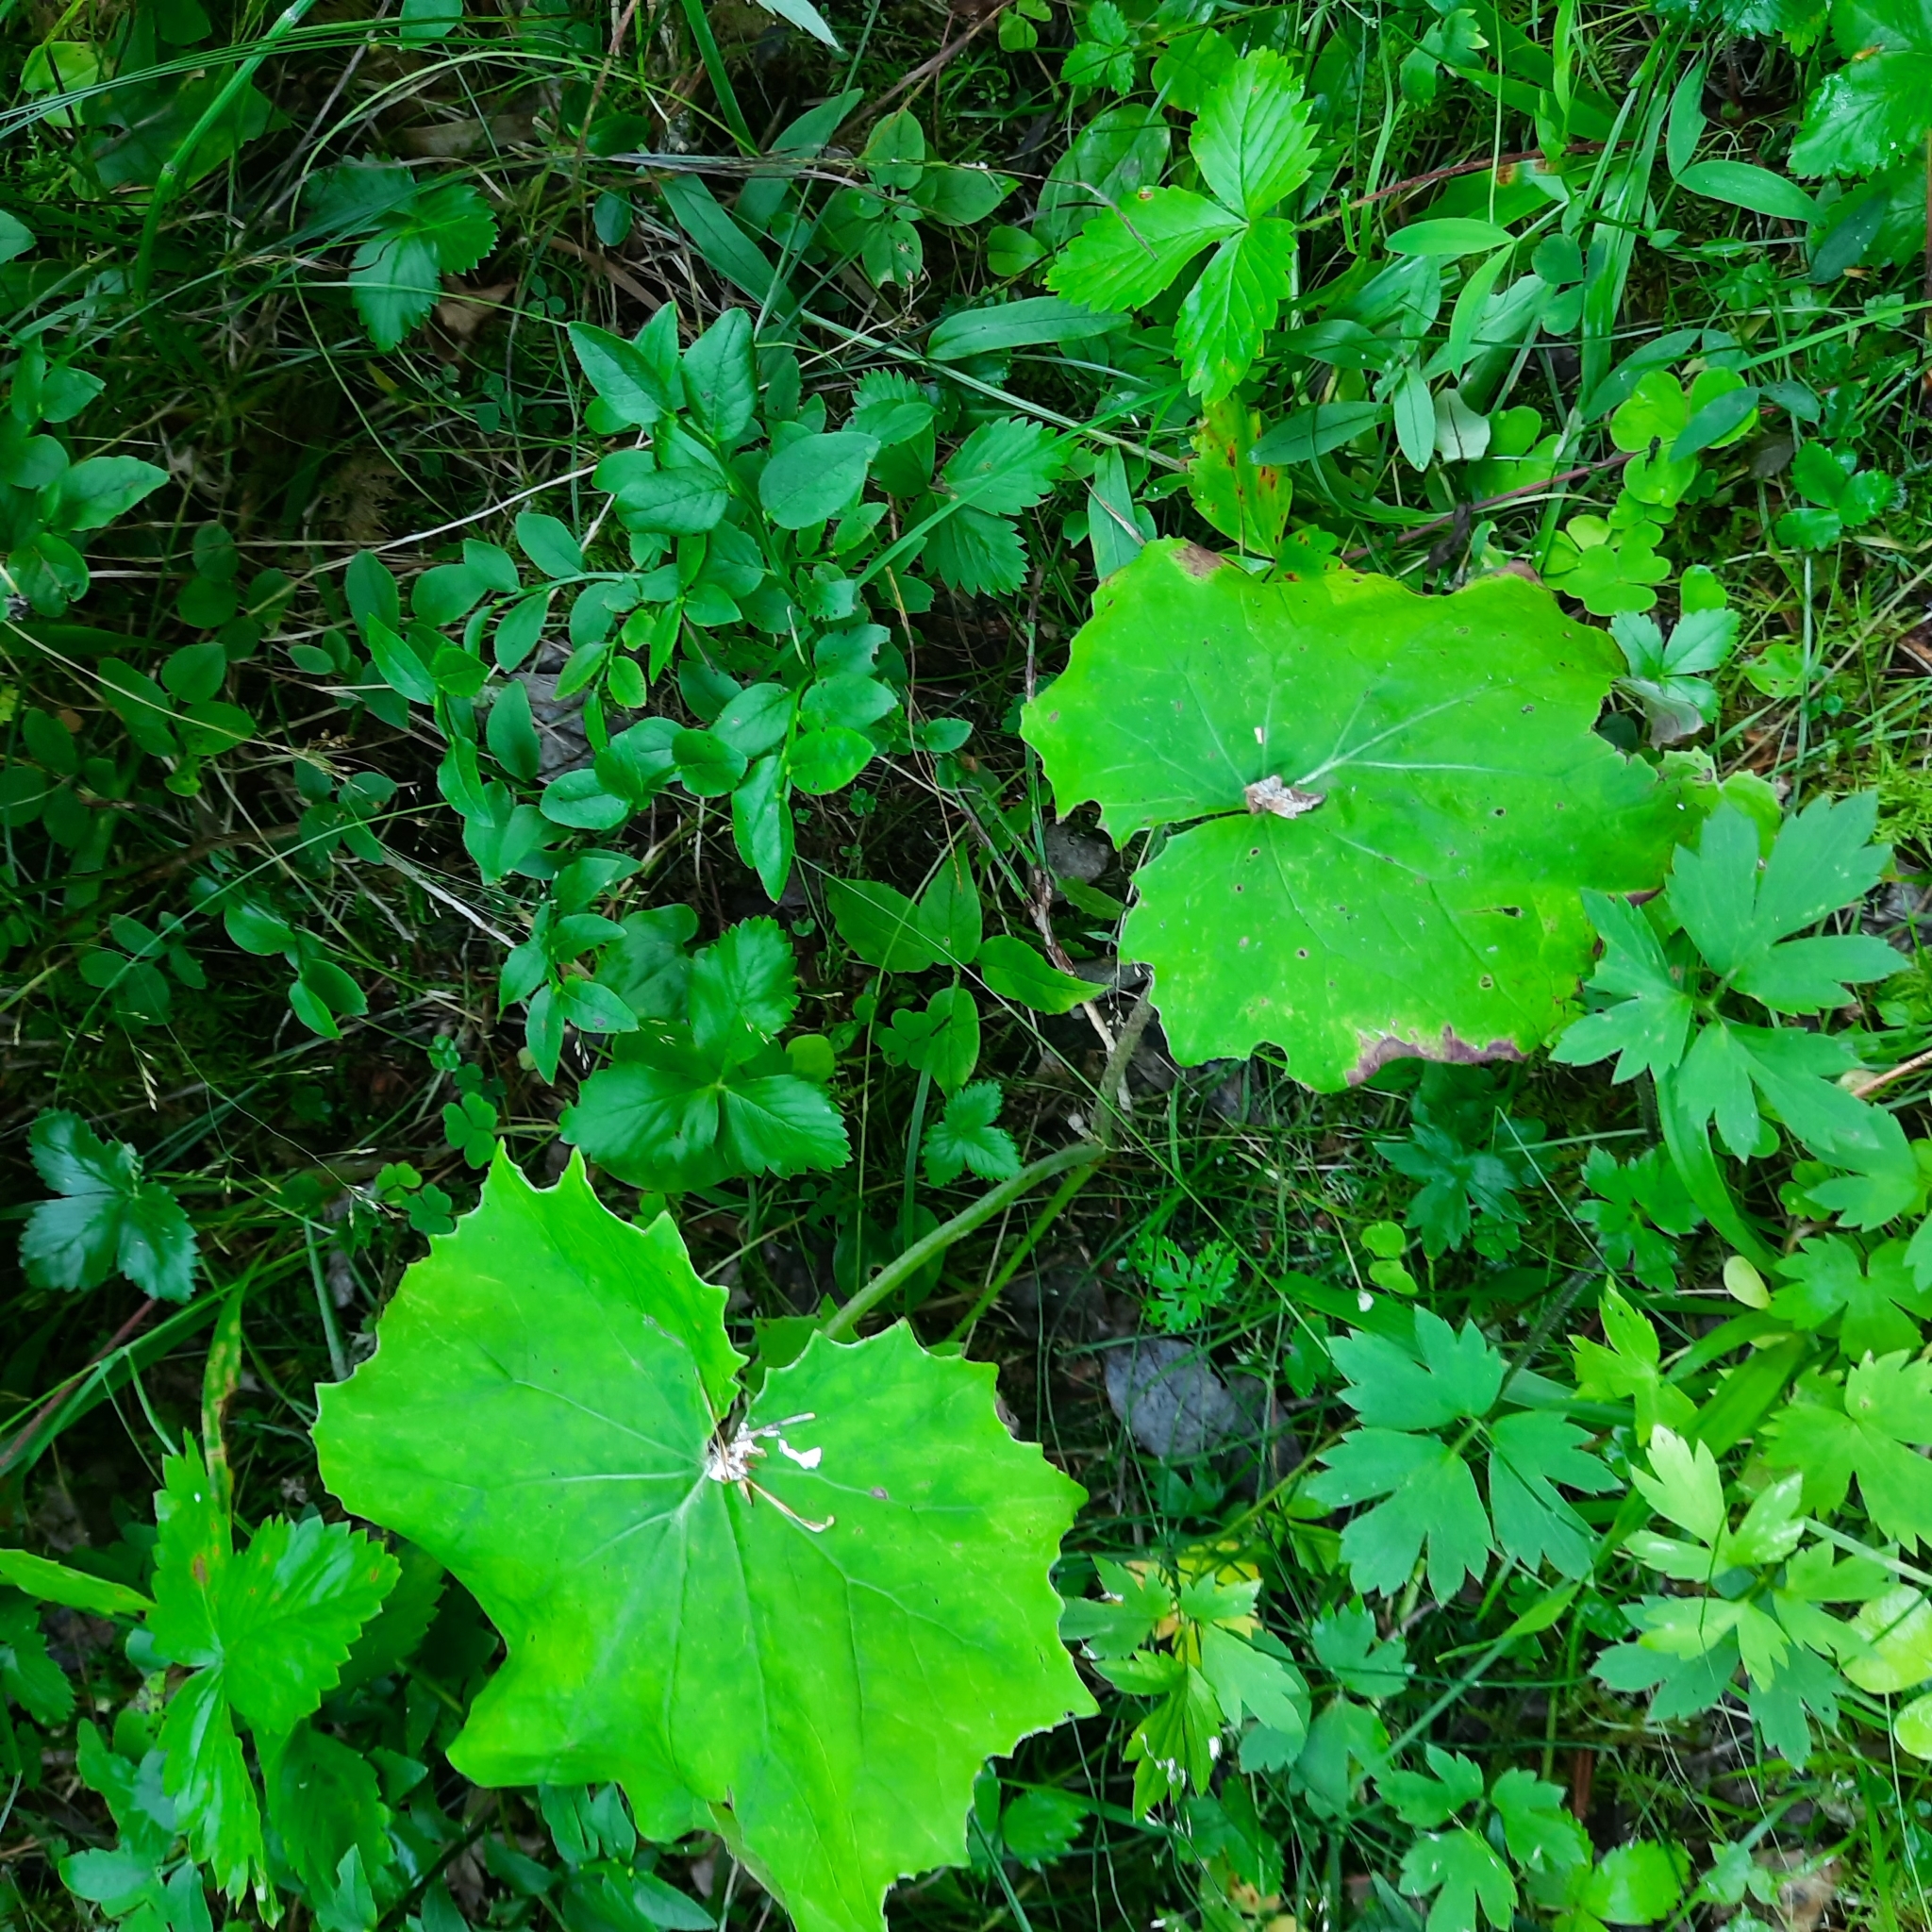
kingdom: Plantae
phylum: Tracheophyta
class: Magnoliopsida
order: Asterales
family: Asteraceae
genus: Tussilago
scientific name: Tussilago farfara
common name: Coltsfoot
